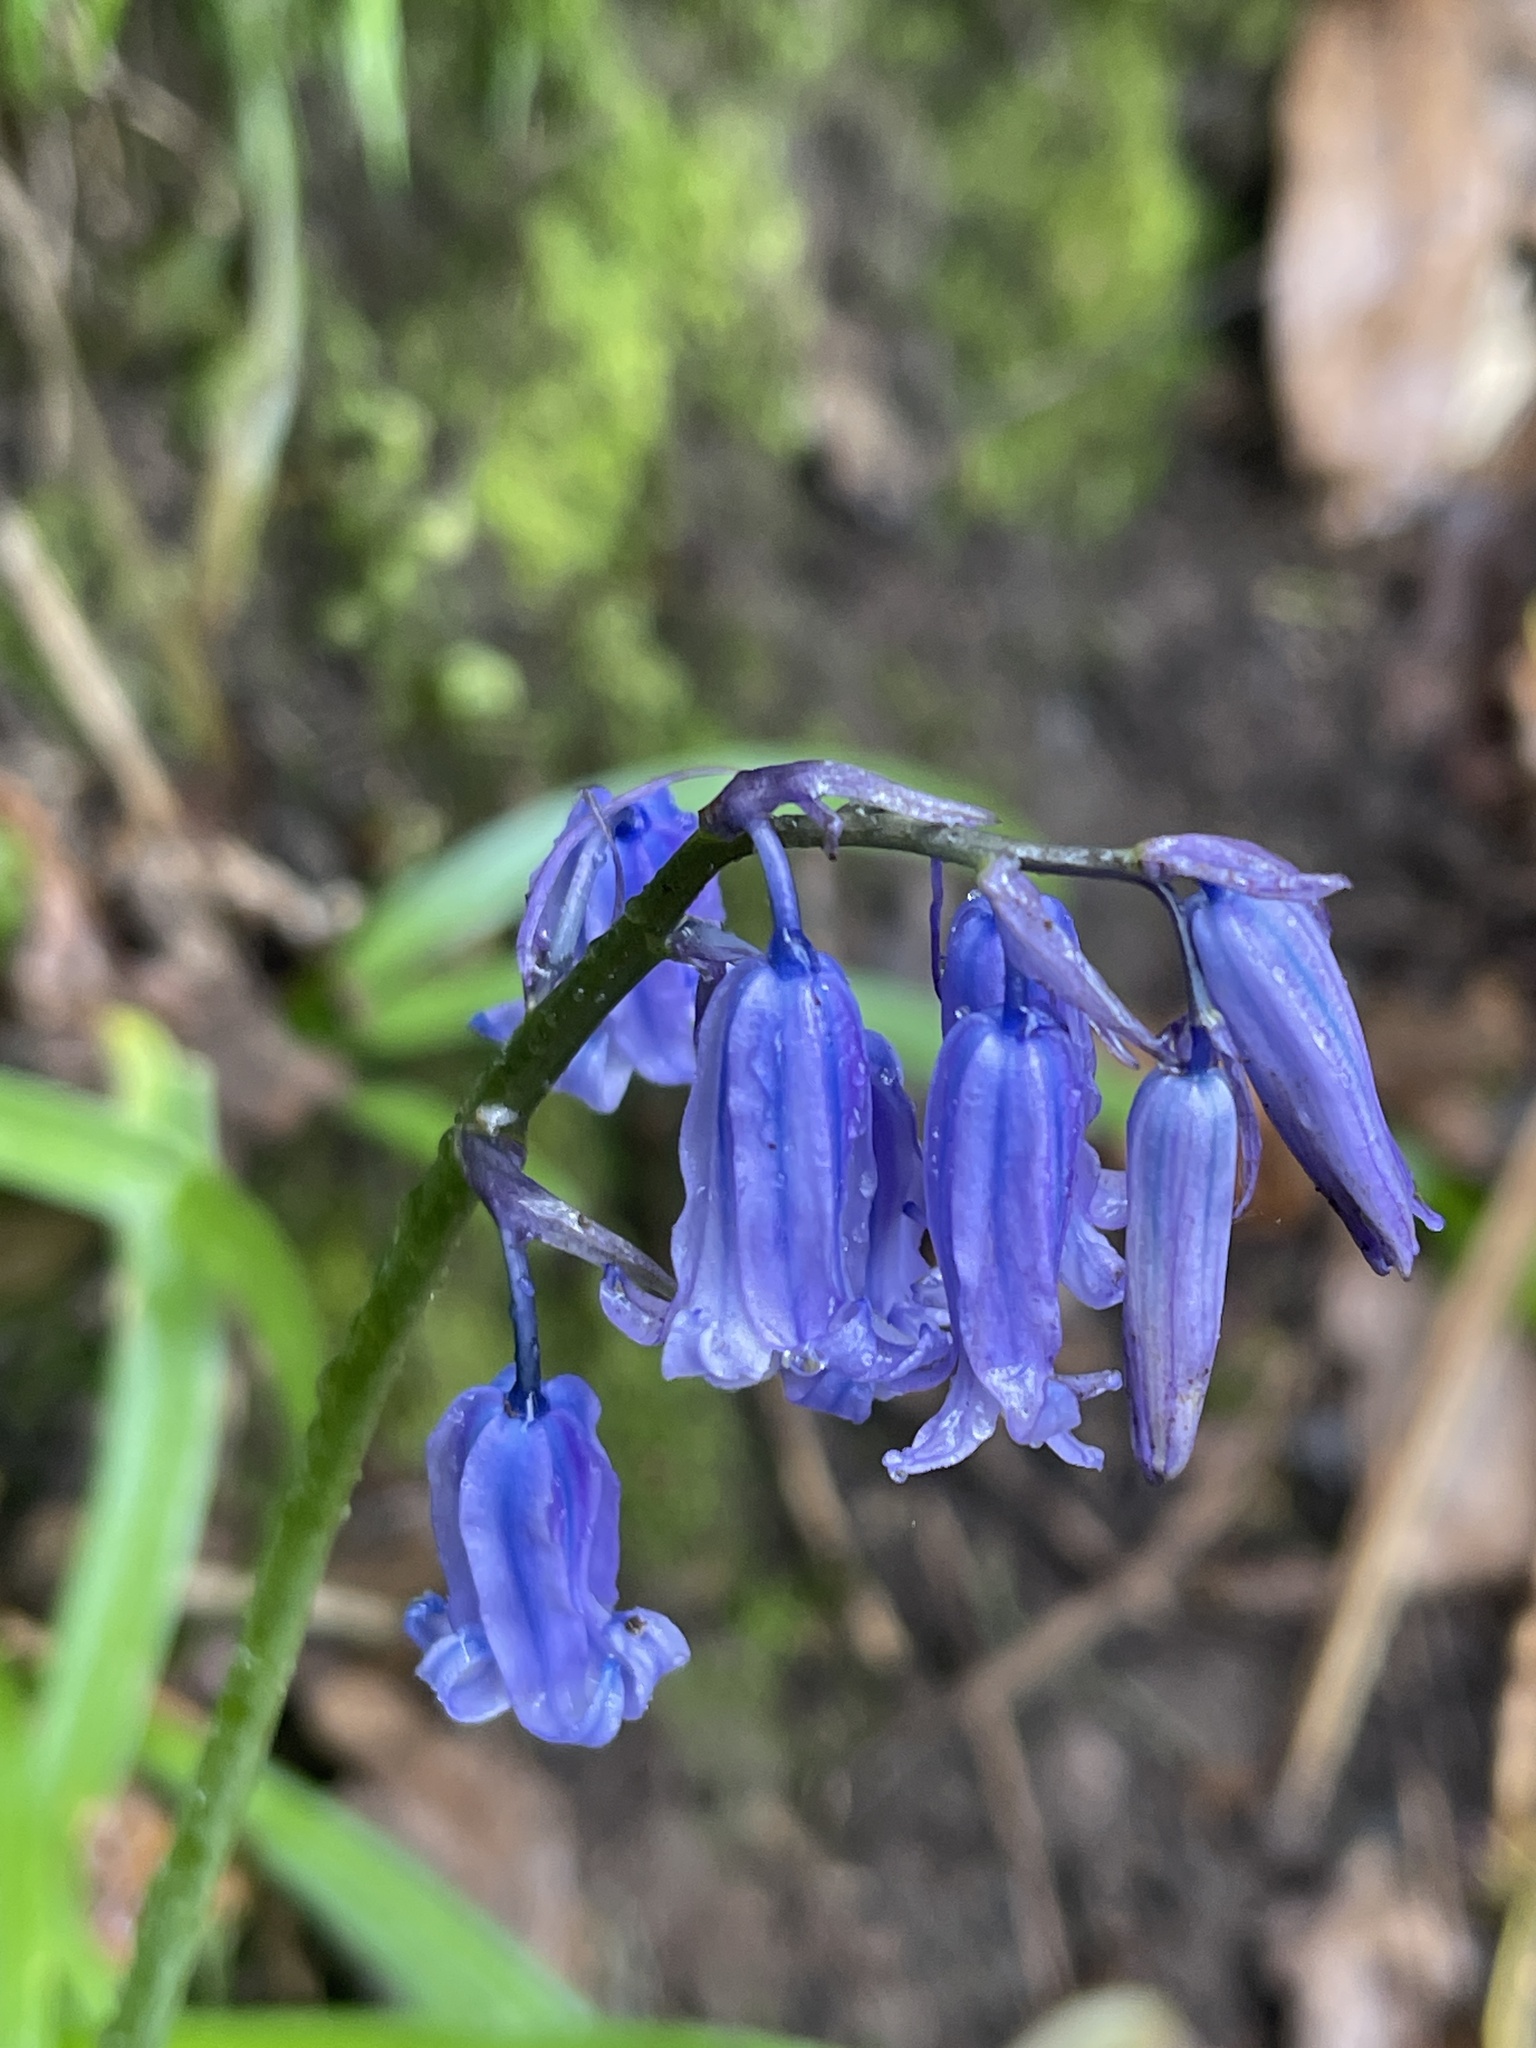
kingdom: Plantae
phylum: Tracheophyta
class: Liliopsida
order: Asparagales
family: Asparagaceae
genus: Hyacinthoides
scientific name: Hyacinthoides non-scripta
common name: Bluebell
